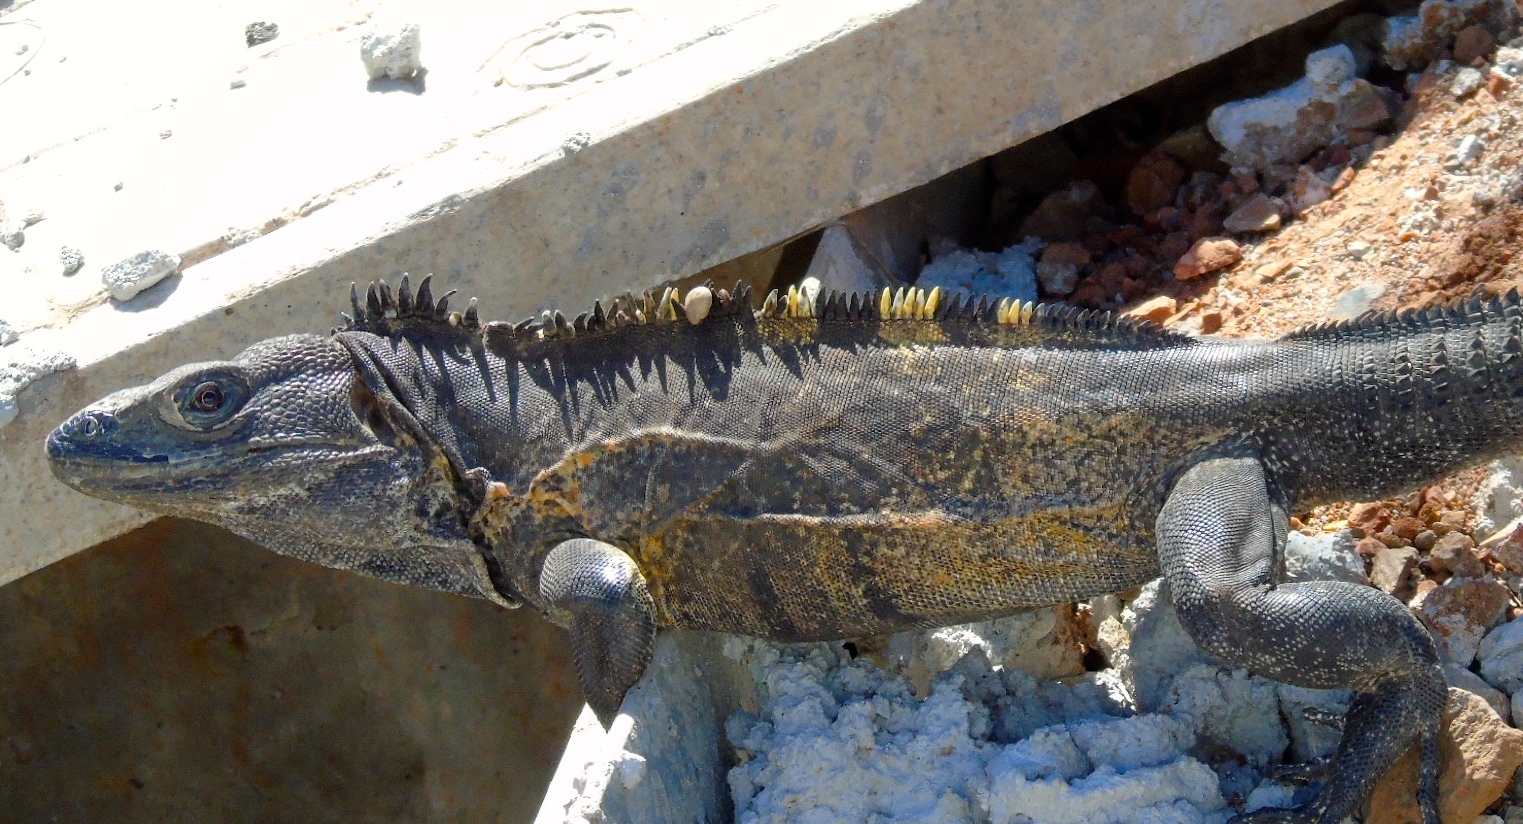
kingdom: Animalia
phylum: Chordata
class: Squamata
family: Iguanidae
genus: Ctenosaura
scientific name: Ctenosaura pectinata
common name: Guerreran spiny-tailed iguana
